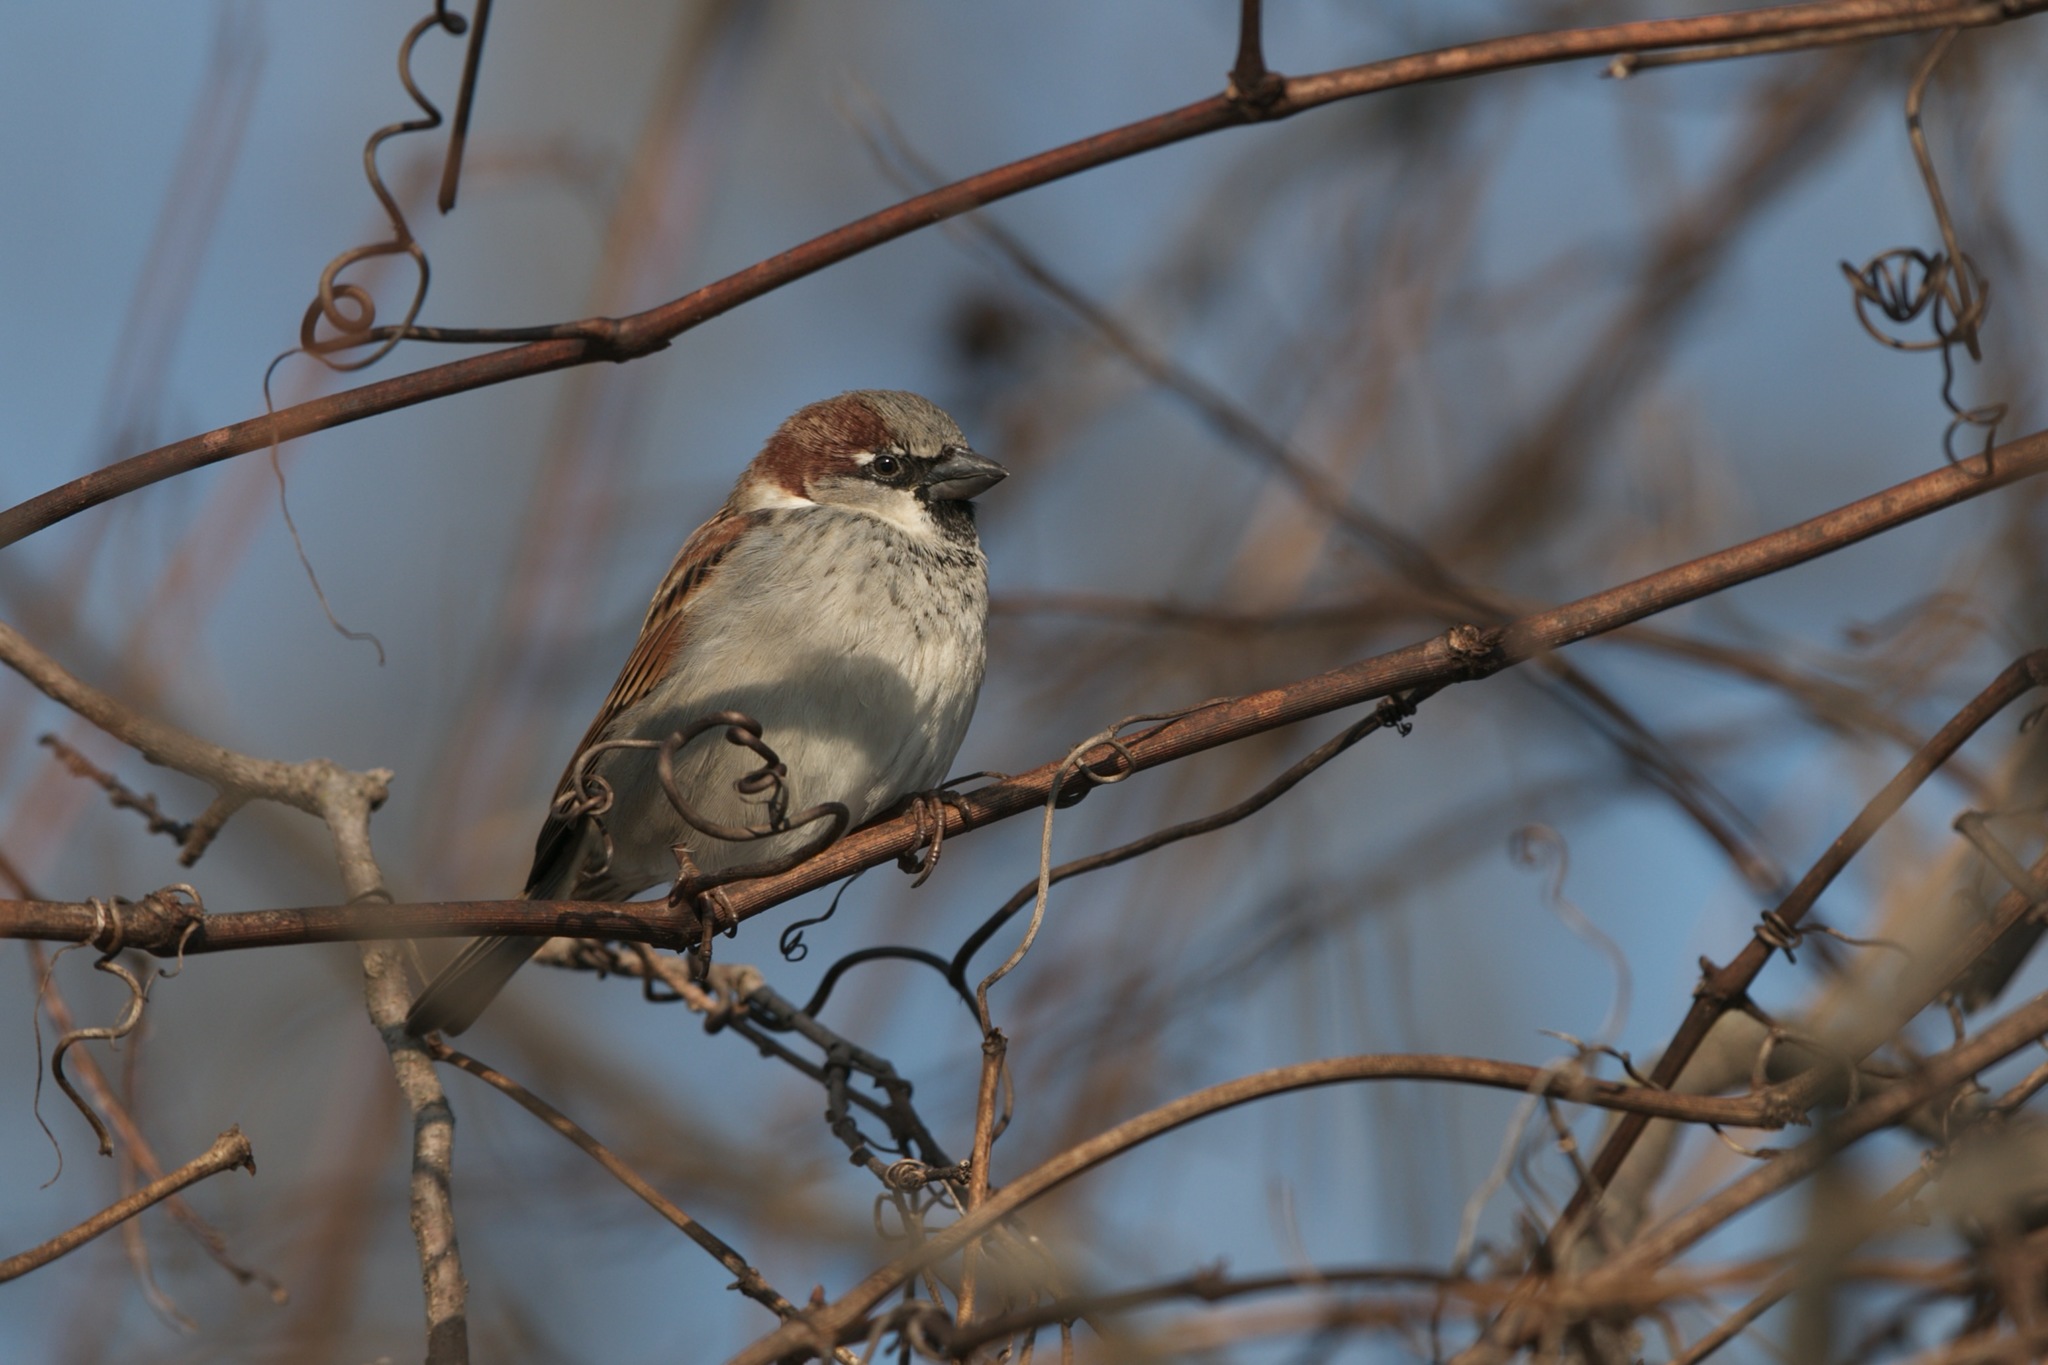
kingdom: Animalia
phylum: Chordata
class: Aves
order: Passeriformes
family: Passeridae
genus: Passer
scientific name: Passer domesticus
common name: House sparrow
